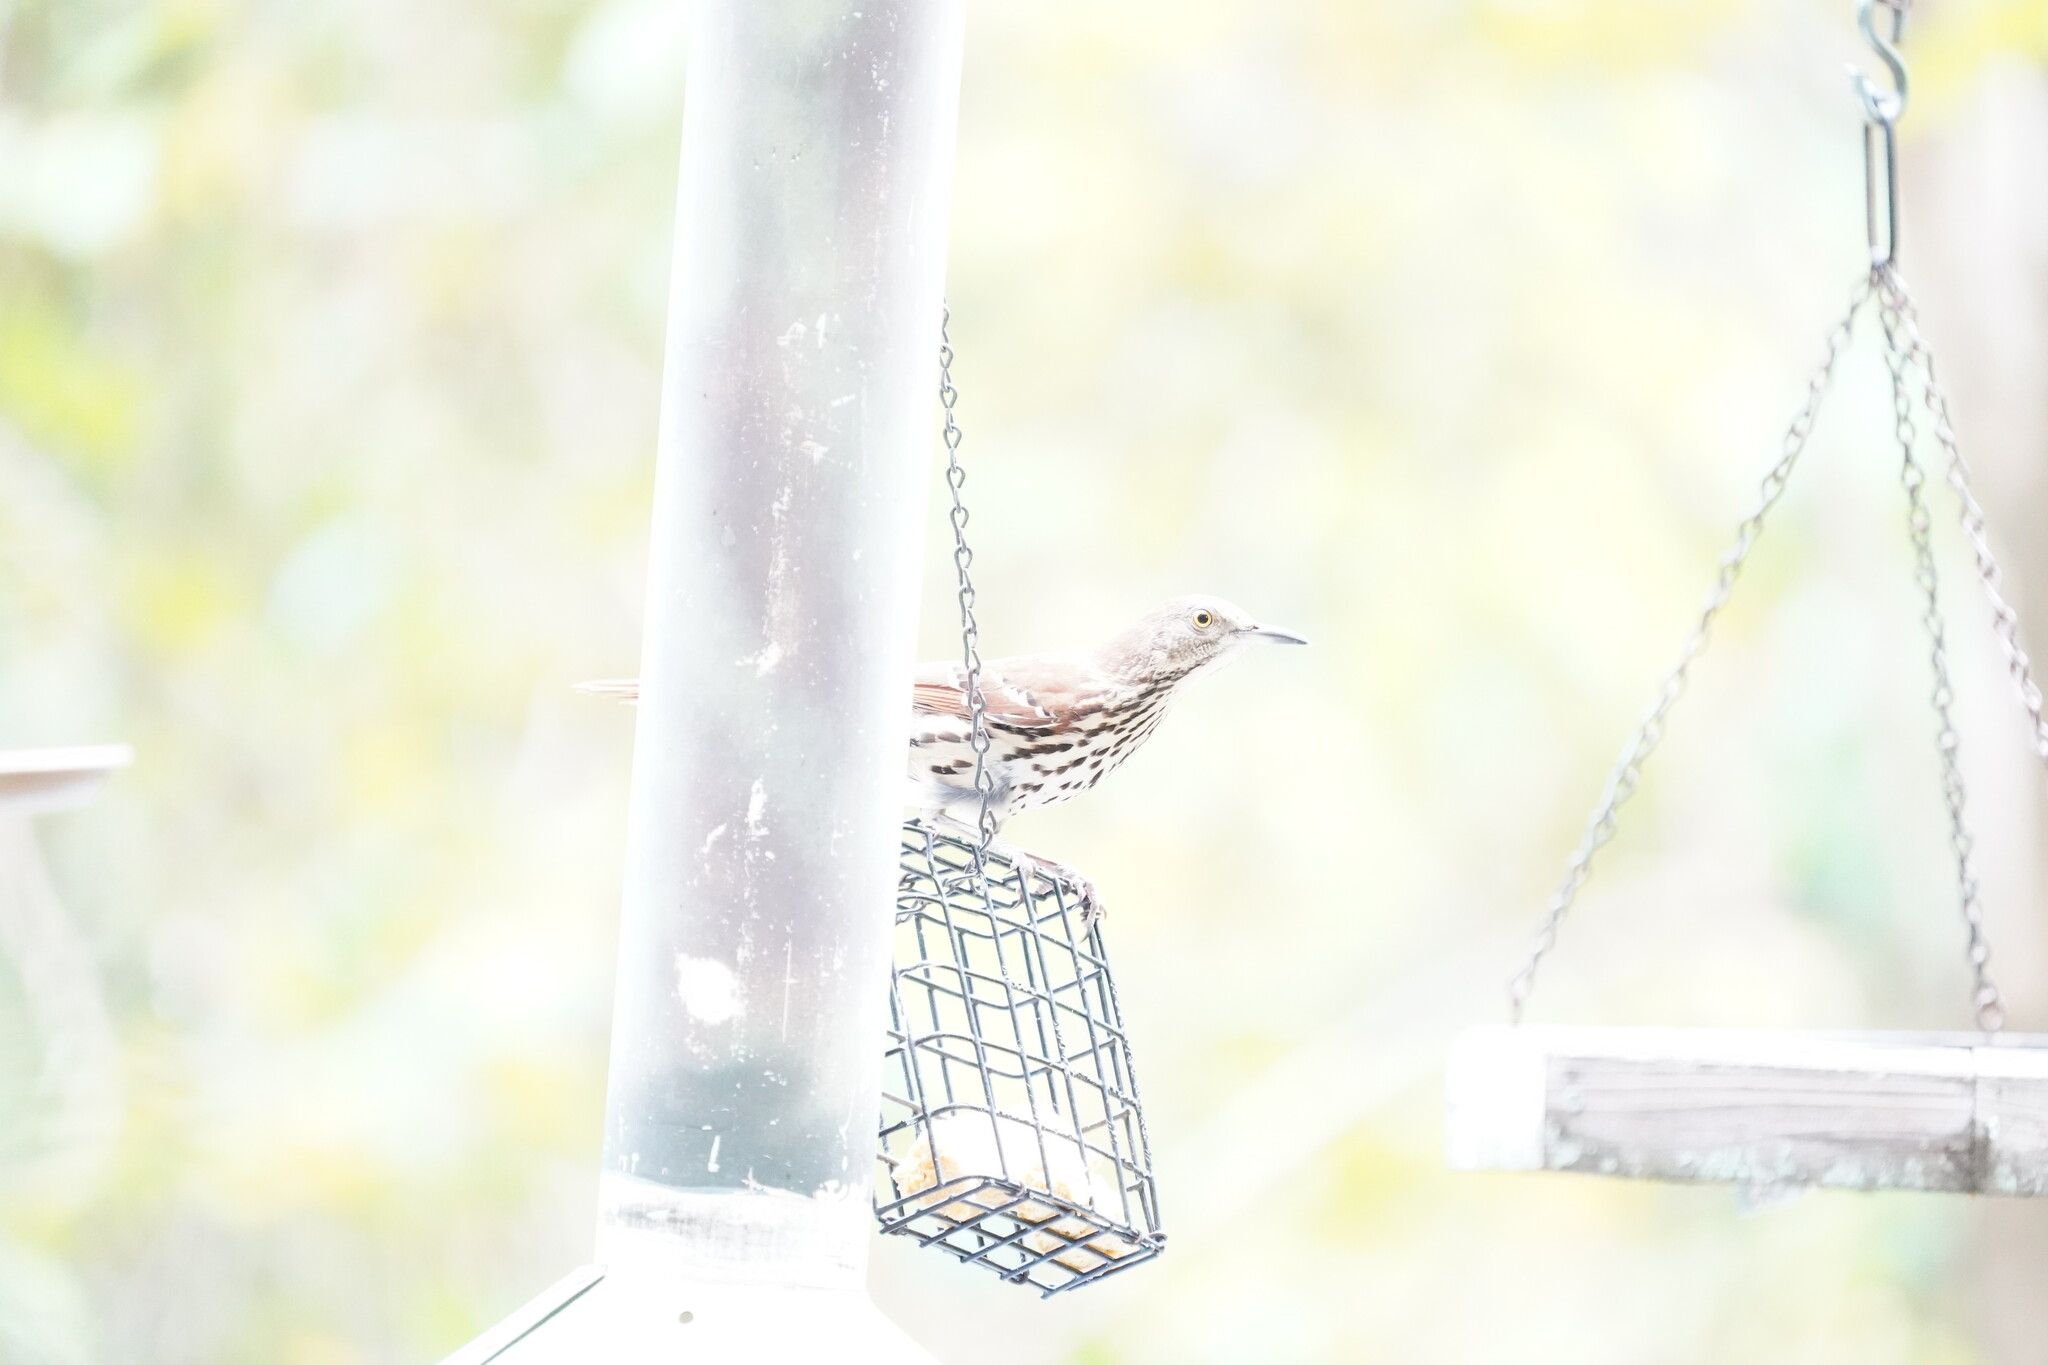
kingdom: Animalia
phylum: Chordata
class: Aves
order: Passeriformes
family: Mimidae
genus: Toxostoma
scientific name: Toxostoma rufum
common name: Brown thrasher
